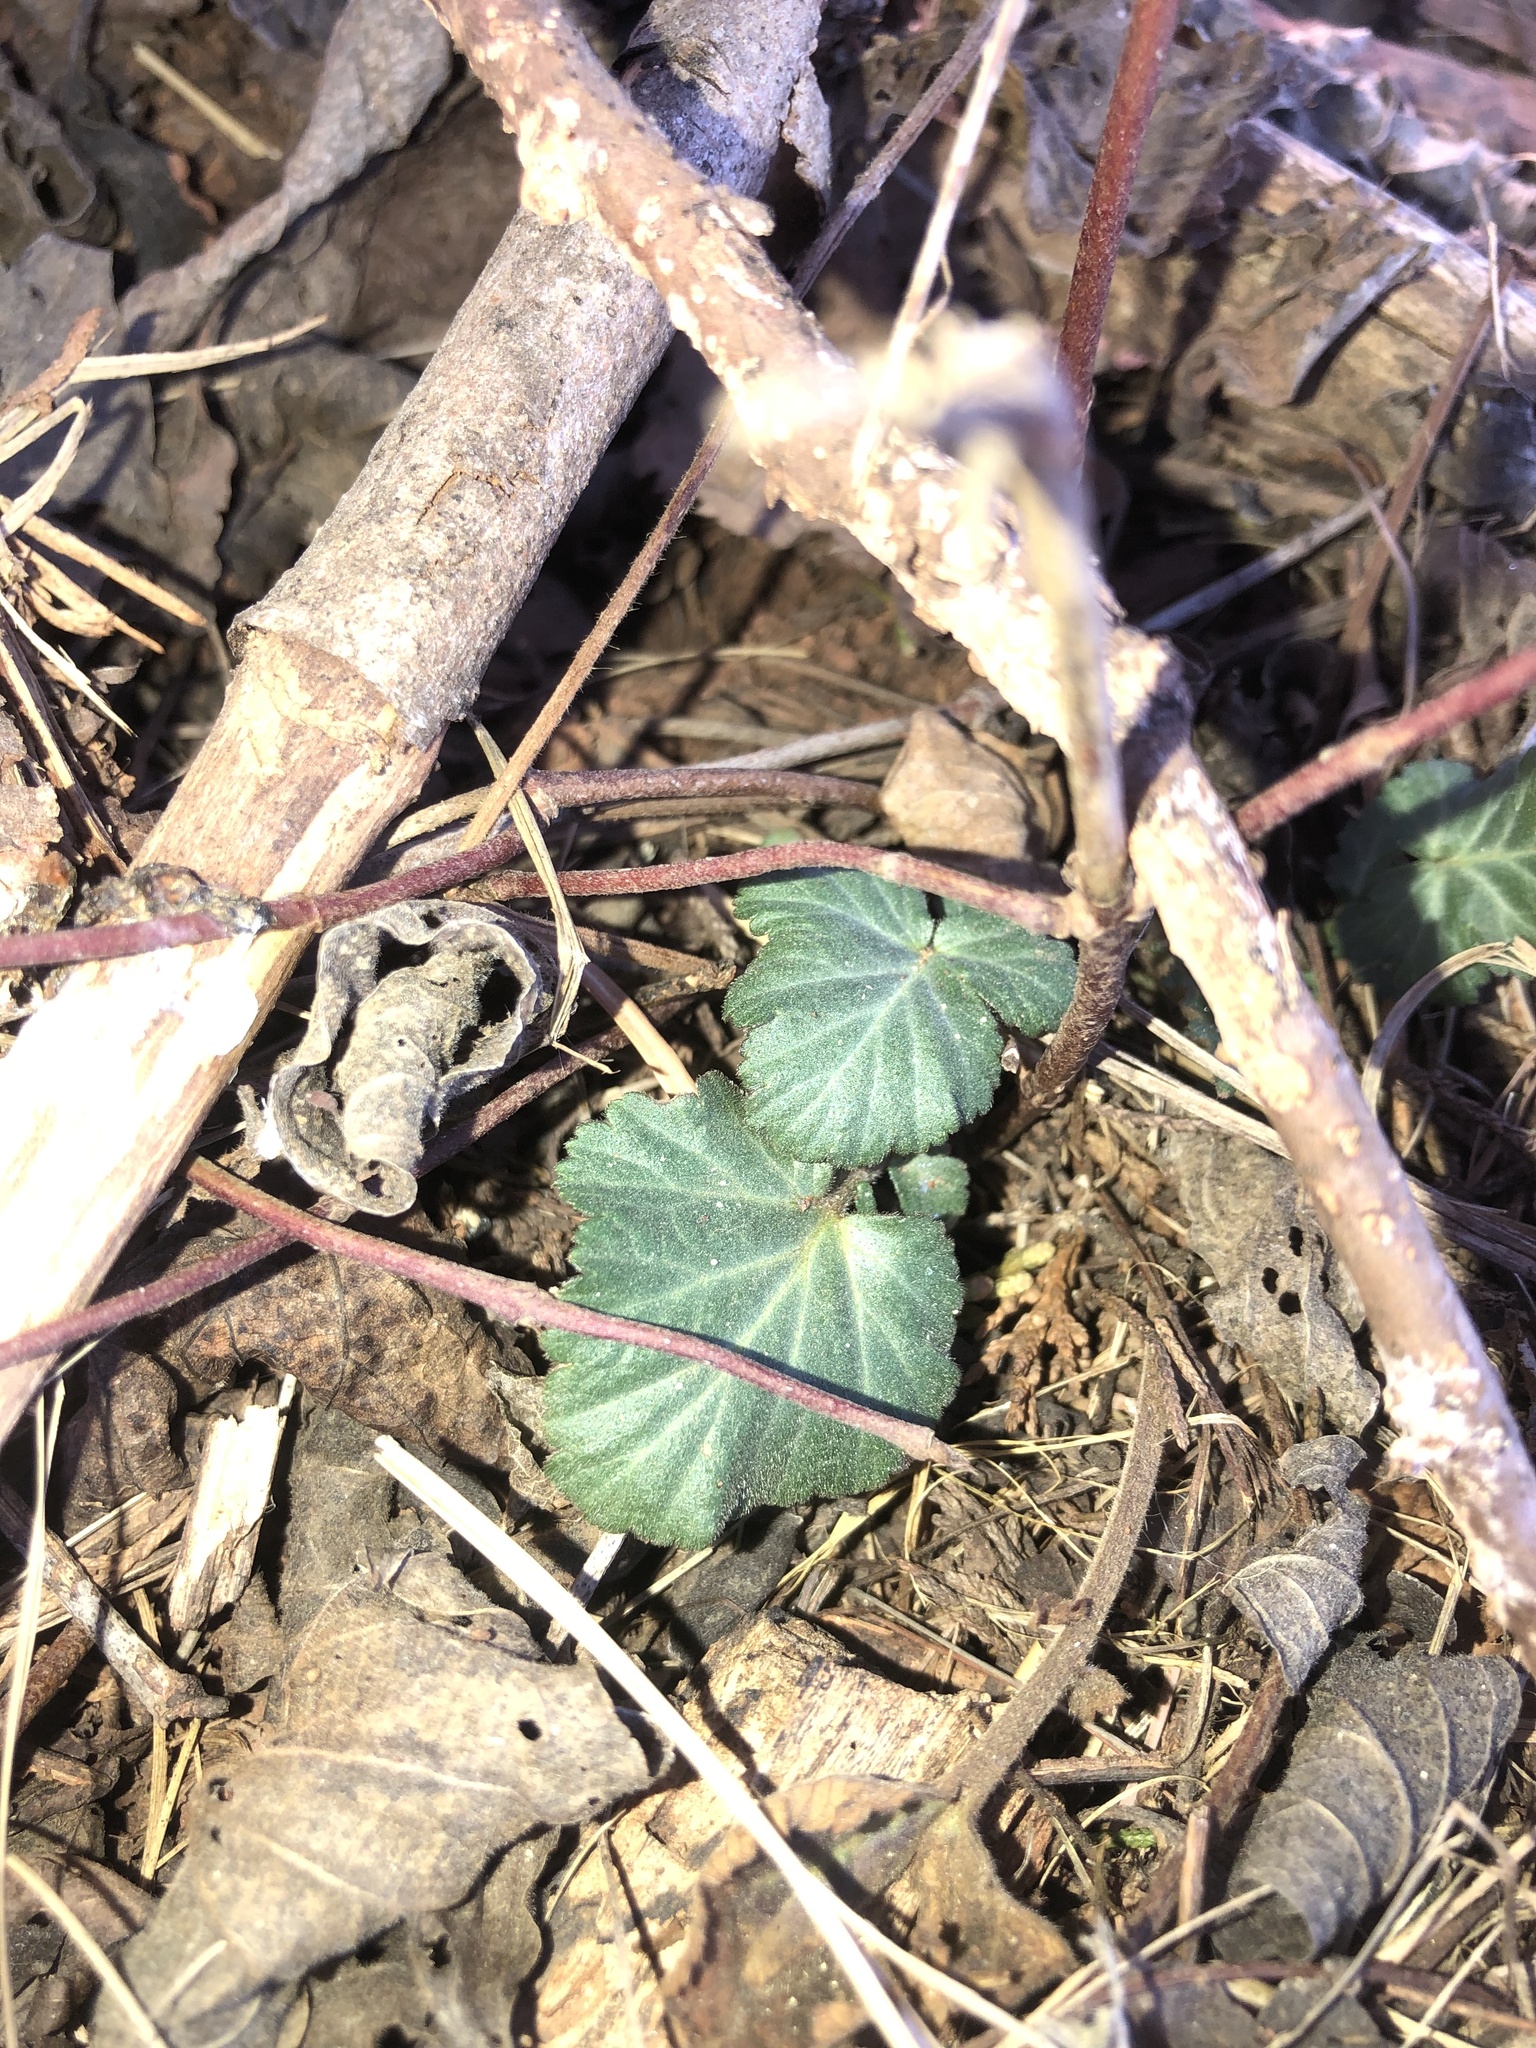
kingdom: Plantae
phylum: Tracheophyta
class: Magnoliopsida
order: Rosales
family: Rosaceae
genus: Geum
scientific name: Geum canadense
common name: White avens
